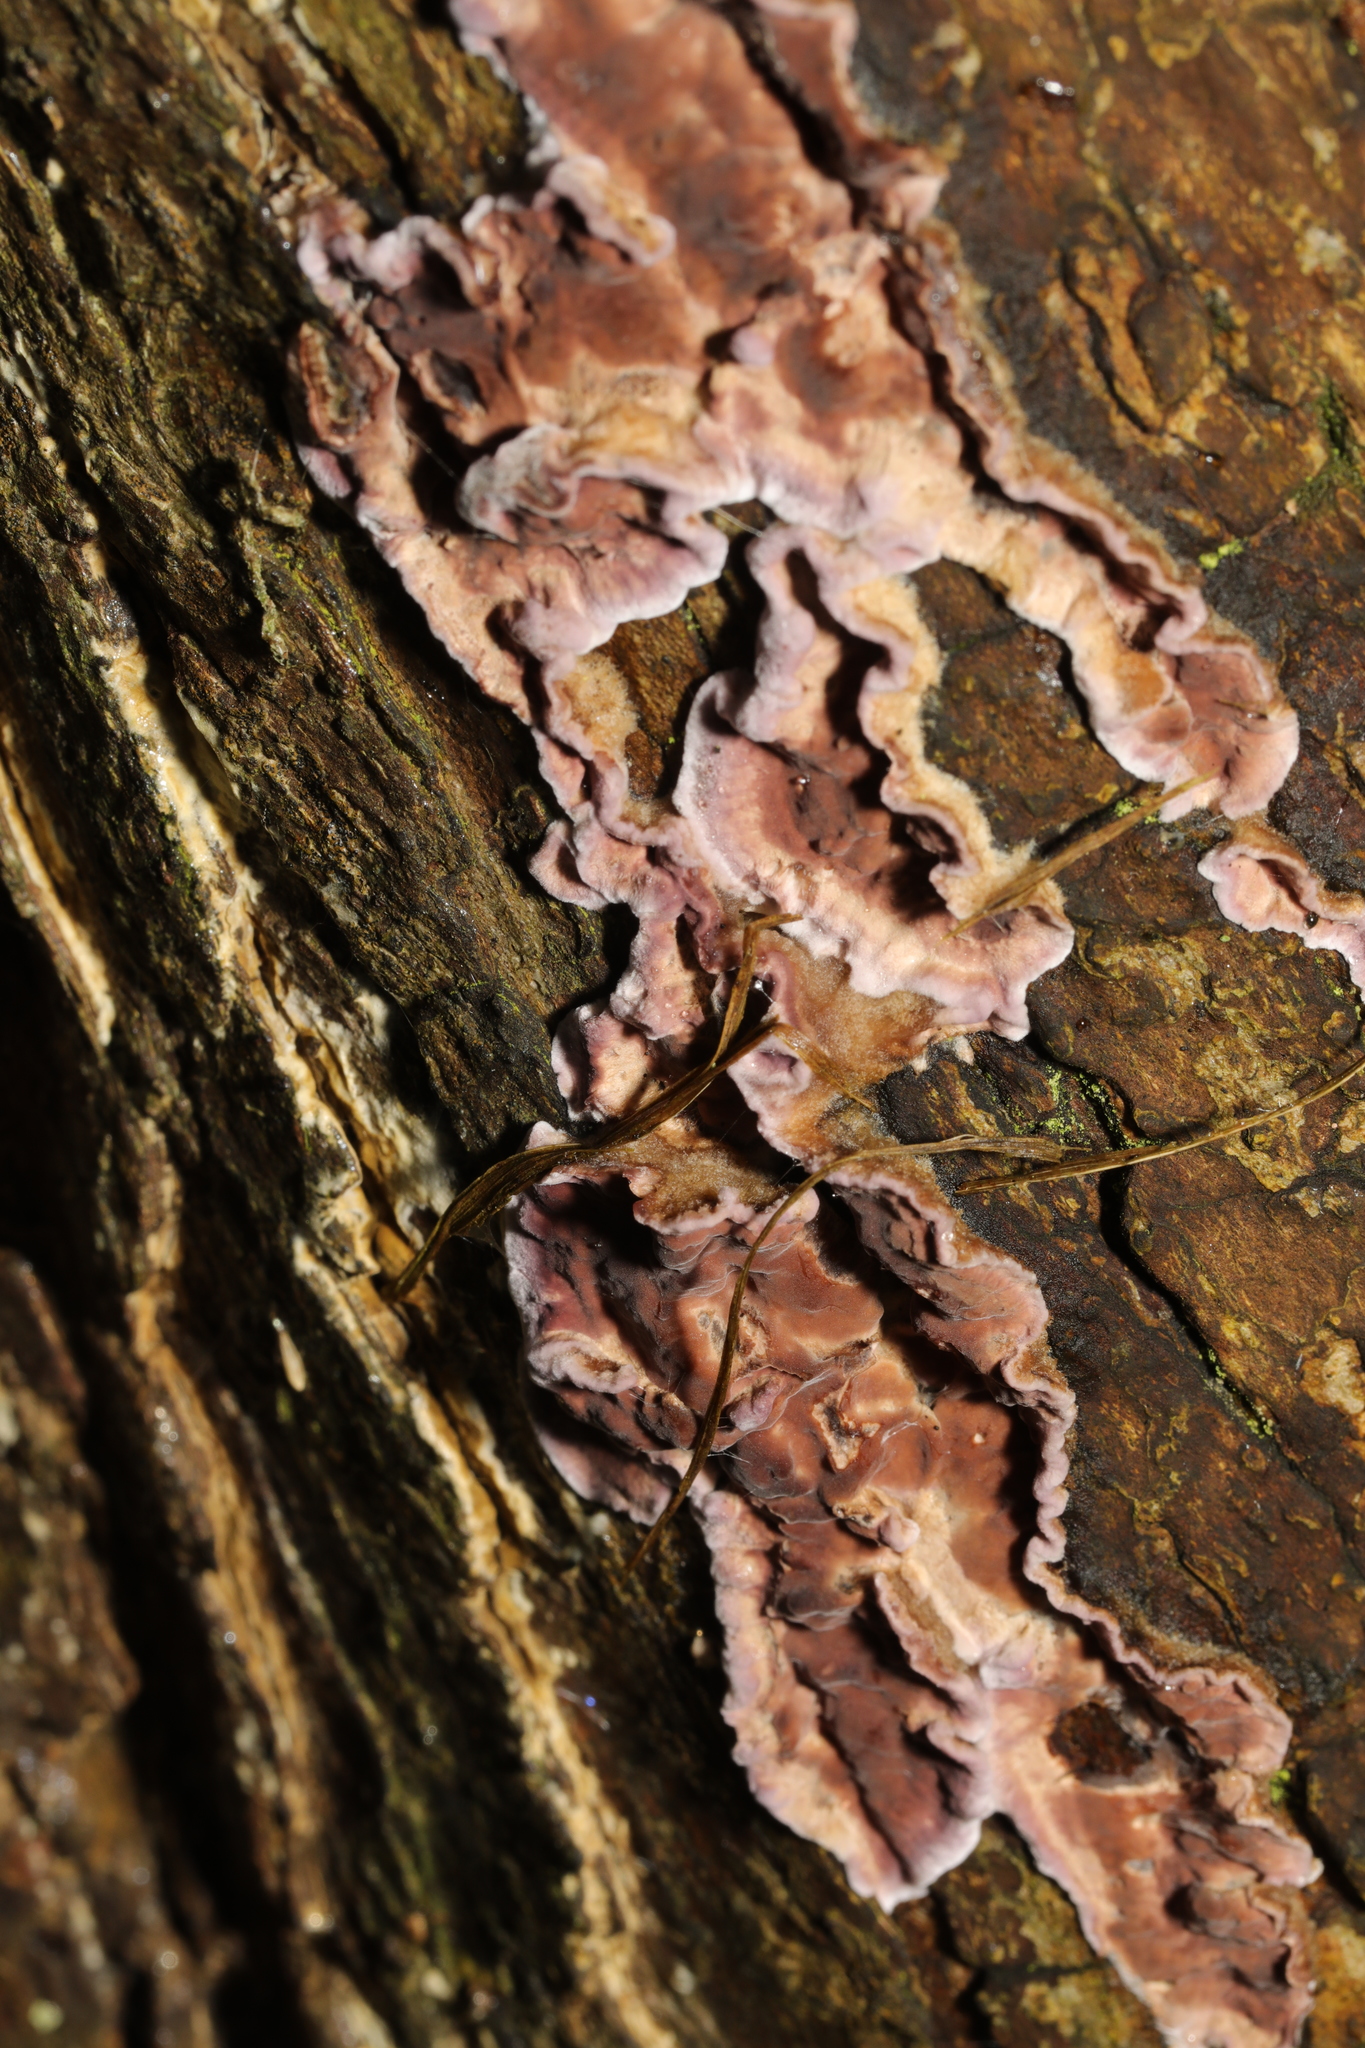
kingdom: Fungi
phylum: Basidiomycota
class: Agaricomycetes
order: Agaricales
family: Cyphellaceae
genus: Chondrostereum
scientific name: Chondrostereum purpureum
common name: Silver leaf disease
